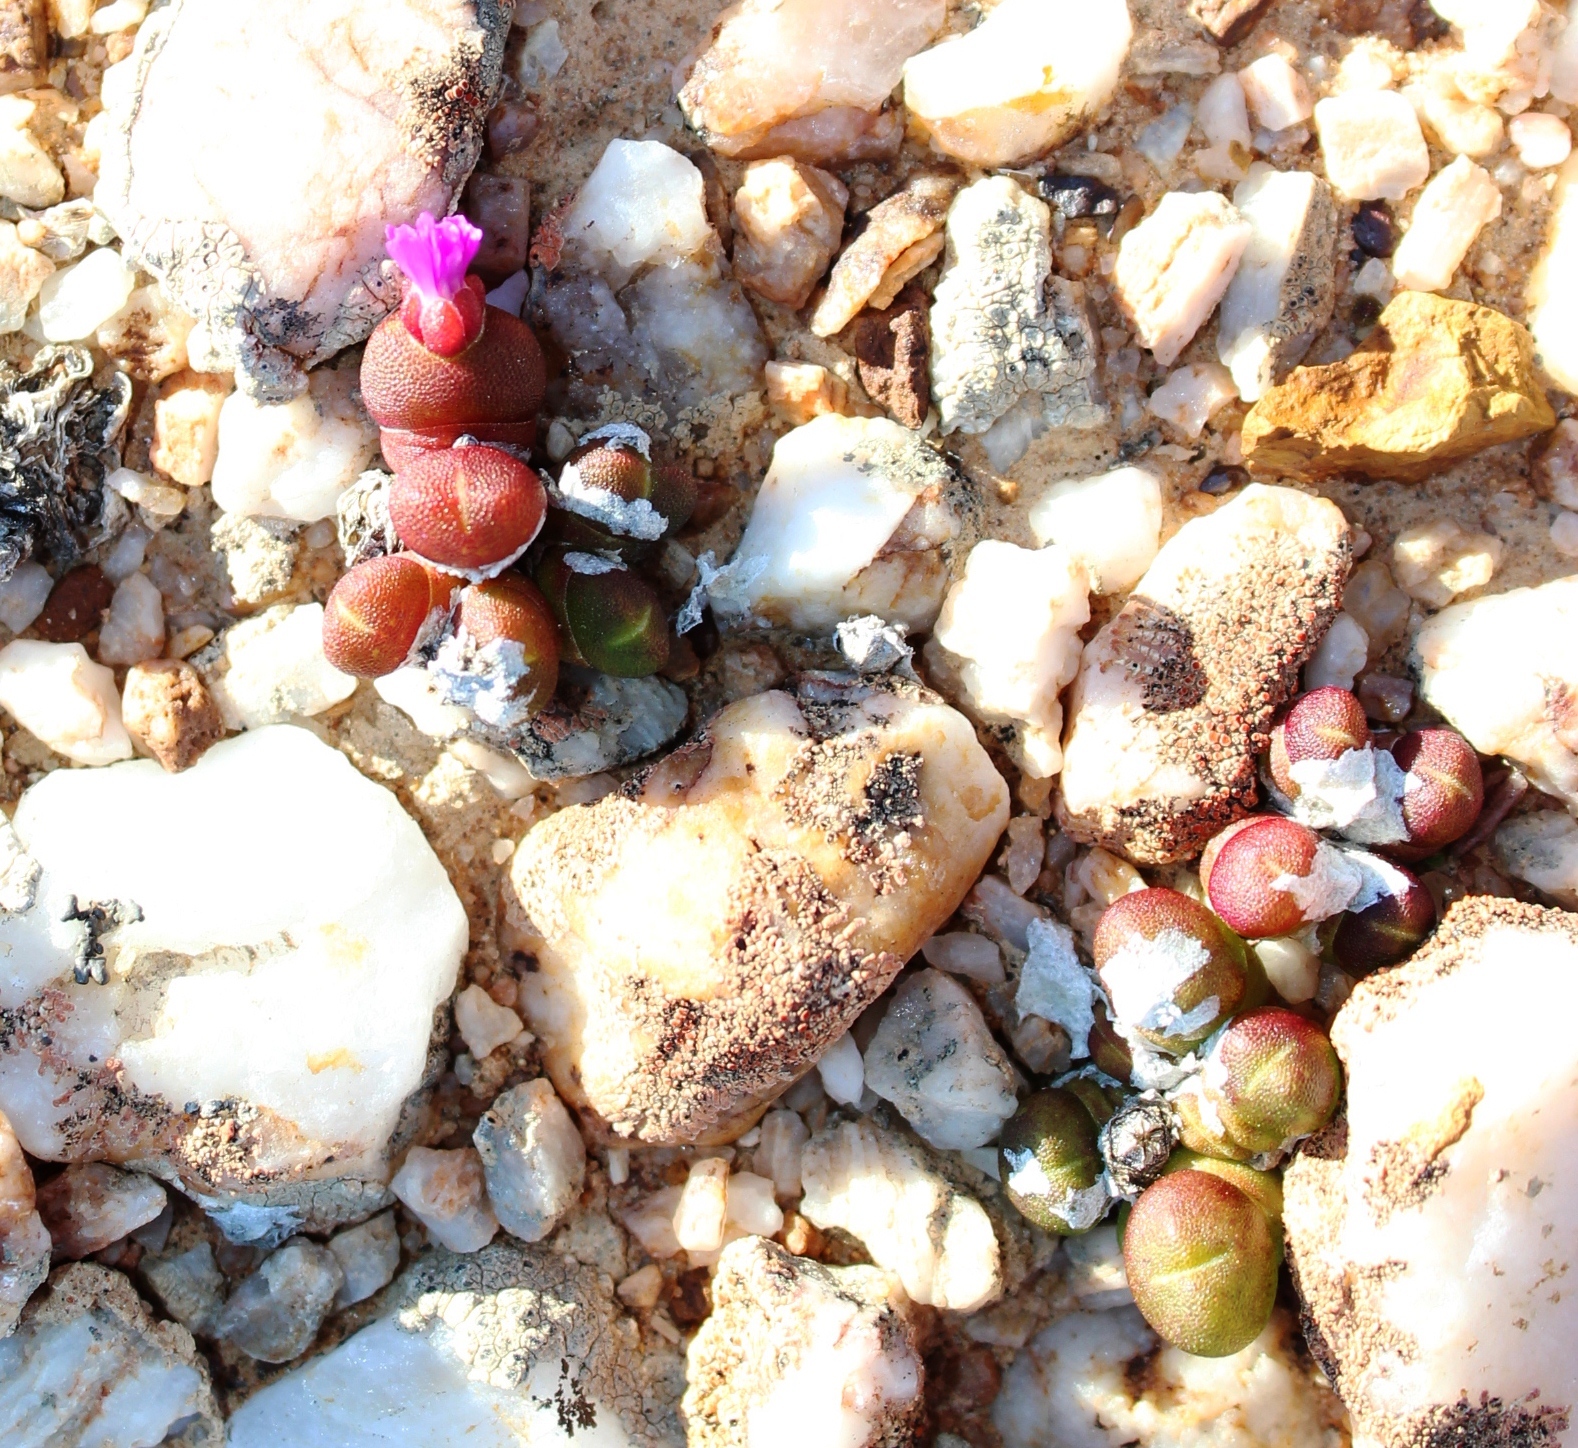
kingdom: Plantae
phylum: Tracheophyta
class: Magnoliopsida
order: Caryophyllales
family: Aizoaceae
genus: Oophytum
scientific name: Oophytum nanum
